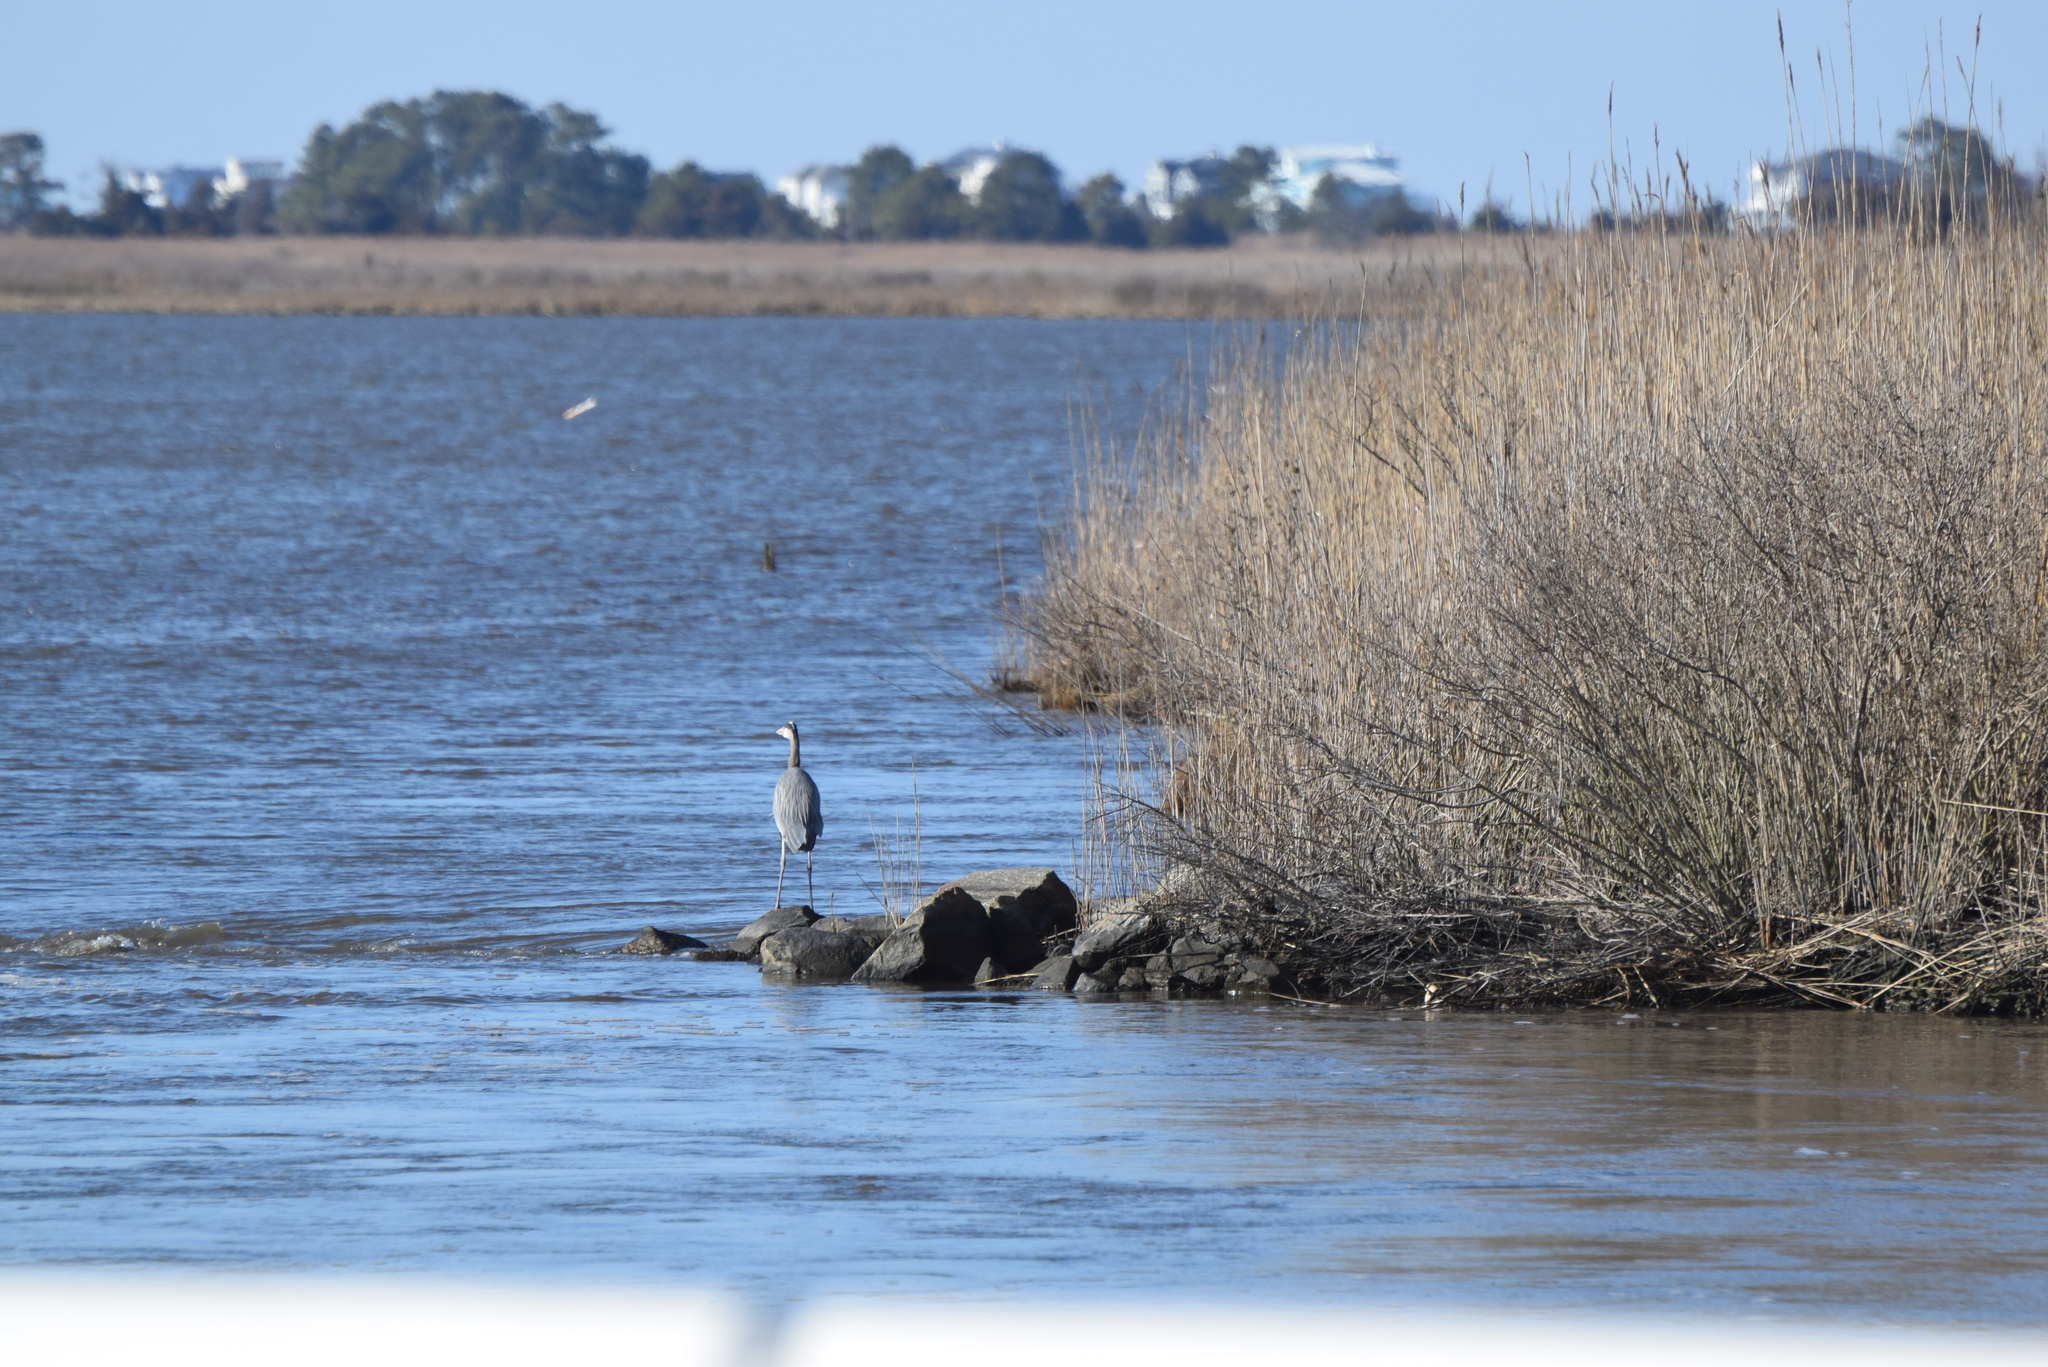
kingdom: Animalia
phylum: Chordata
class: Aves
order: Pelecaniformes
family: Ardeidae
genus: Ardea
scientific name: Ardea herodias
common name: Great blue heron
